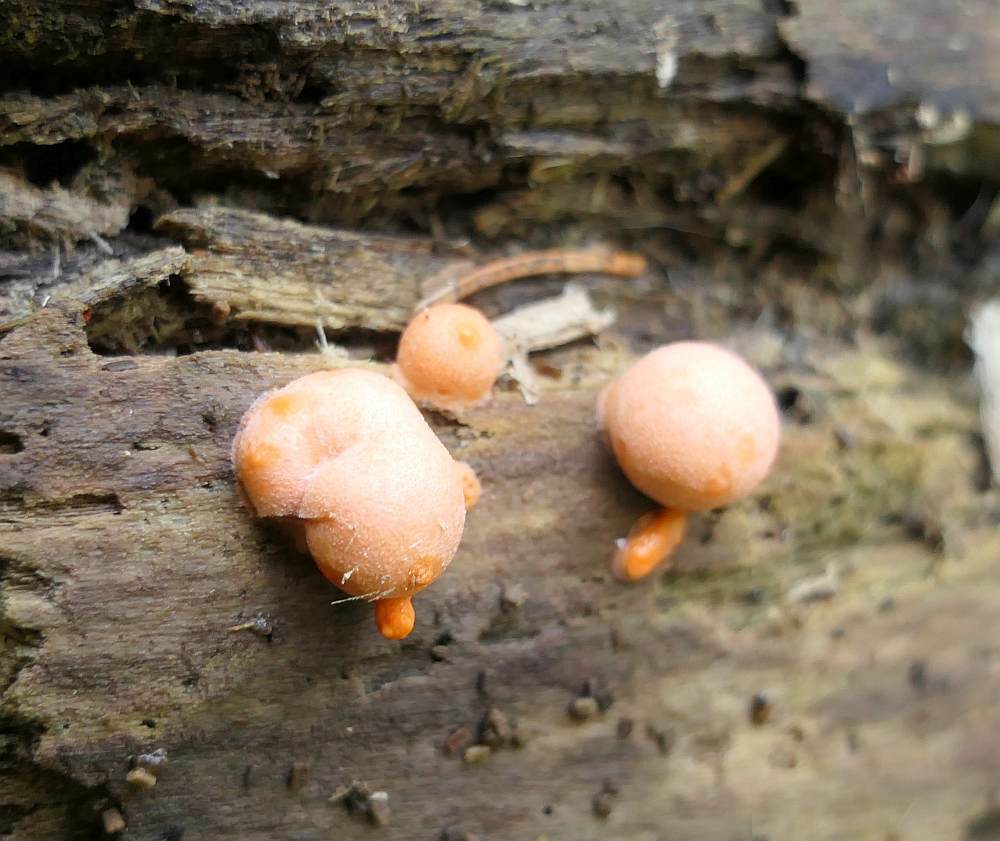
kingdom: Protozoa
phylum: Mycetozoa
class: Myxomycetes
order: Cribrariales
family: Tubiferaceae
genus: Lycogala
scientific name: Lycogala epidendrum
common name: Wolf's milk
